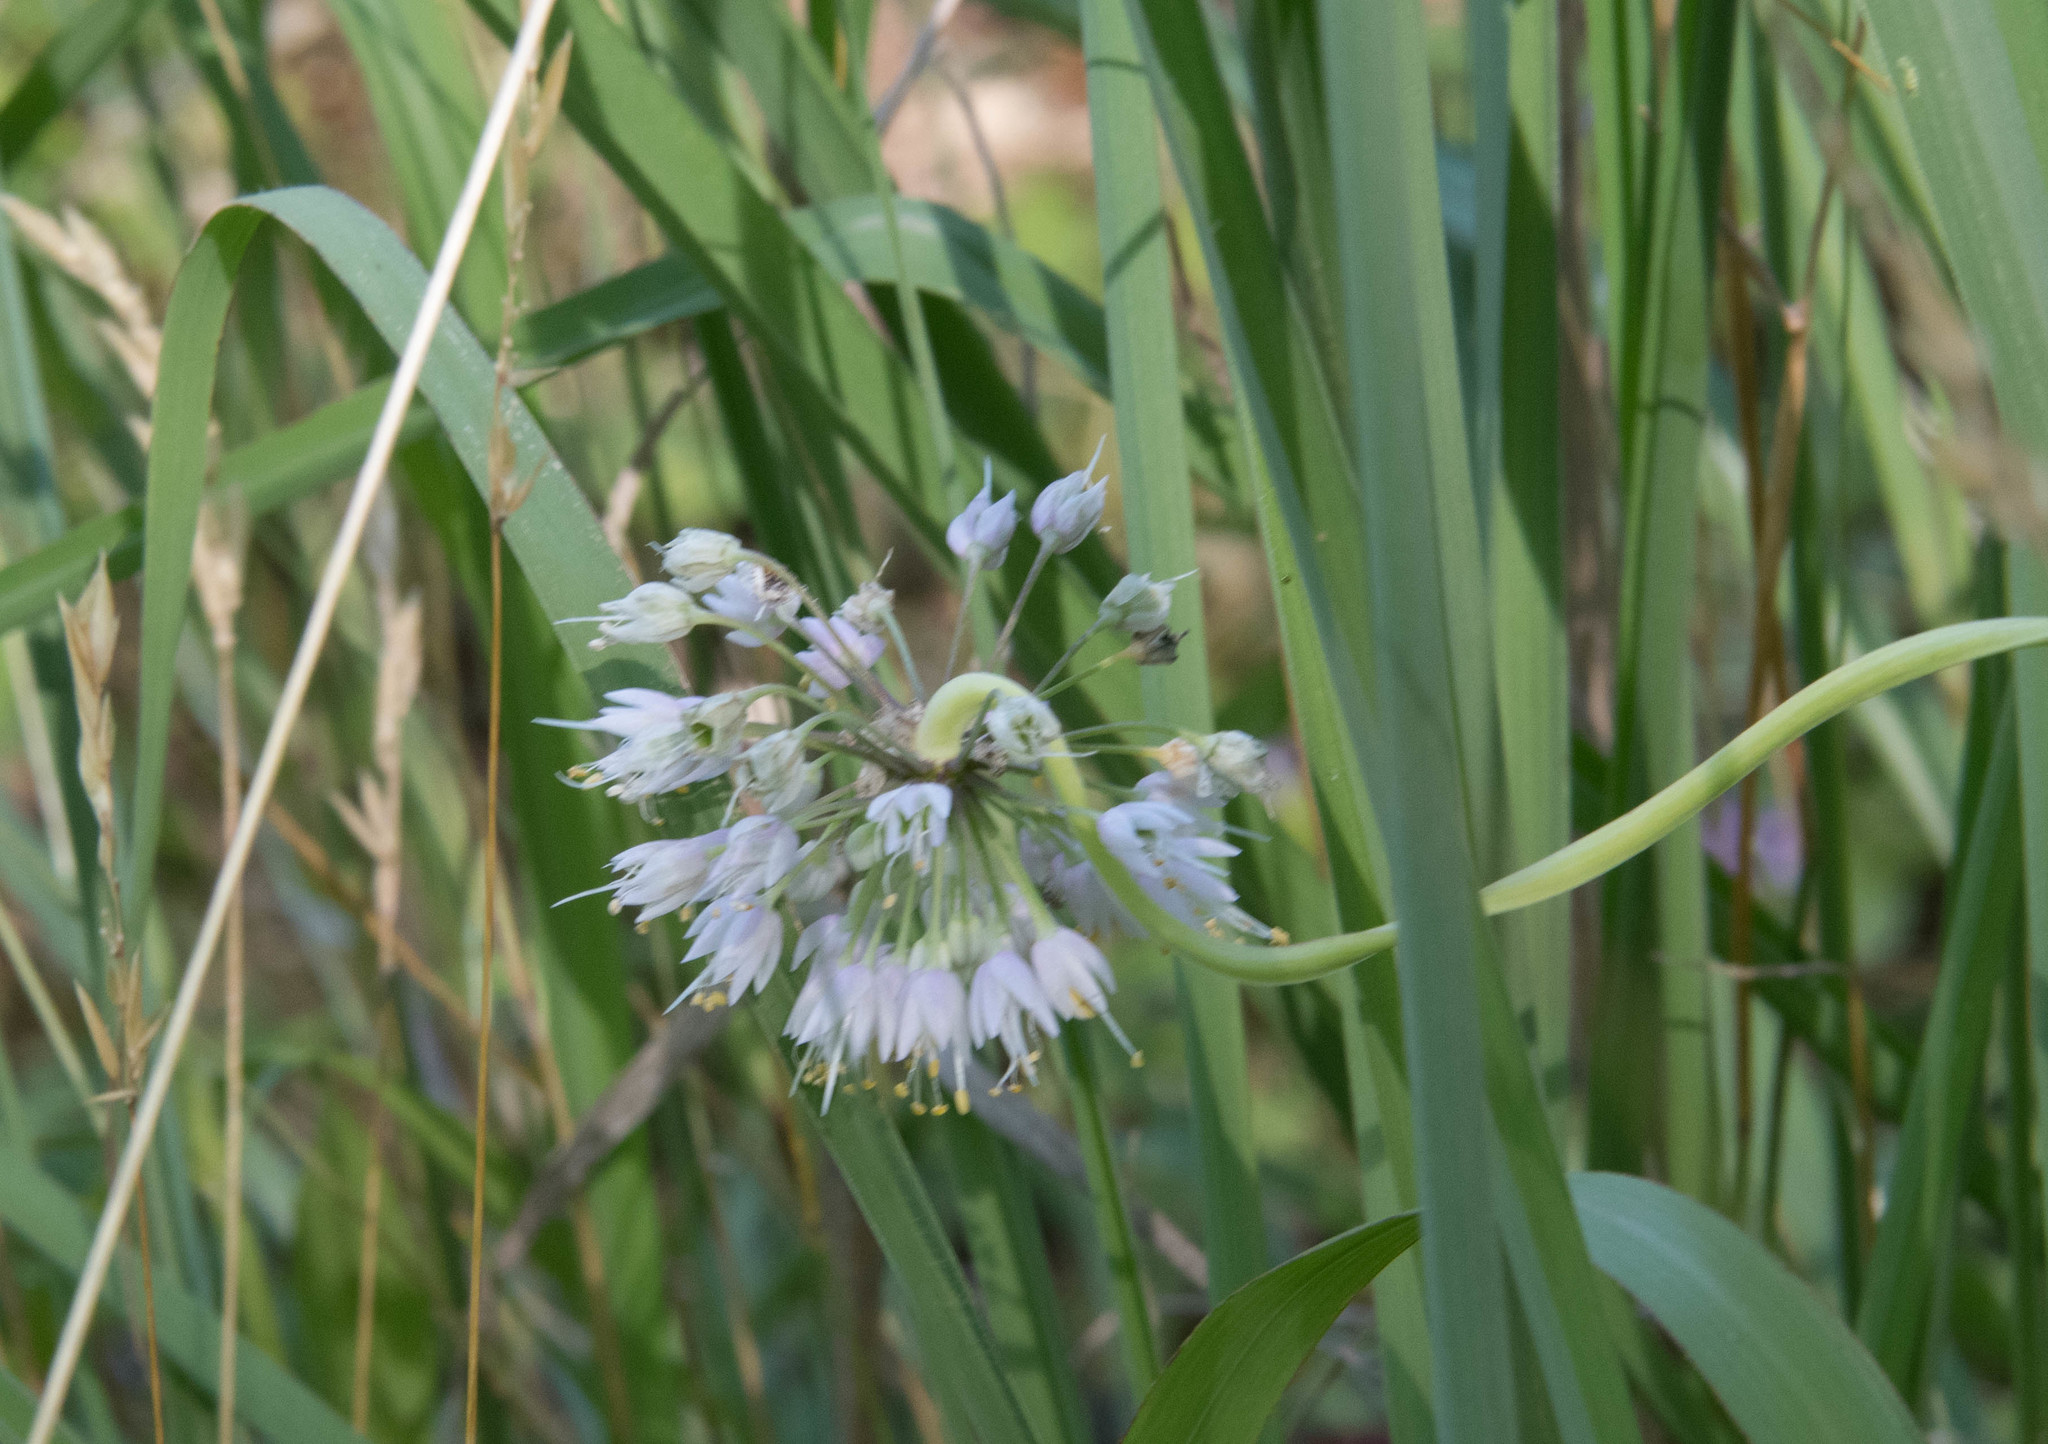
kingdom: Plantae
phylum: Tracheophyta
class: Liliopsida
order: Asparagales
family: Amaryllidaceae
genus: Allium
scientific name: Allium cernuum
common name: Nodding onion
